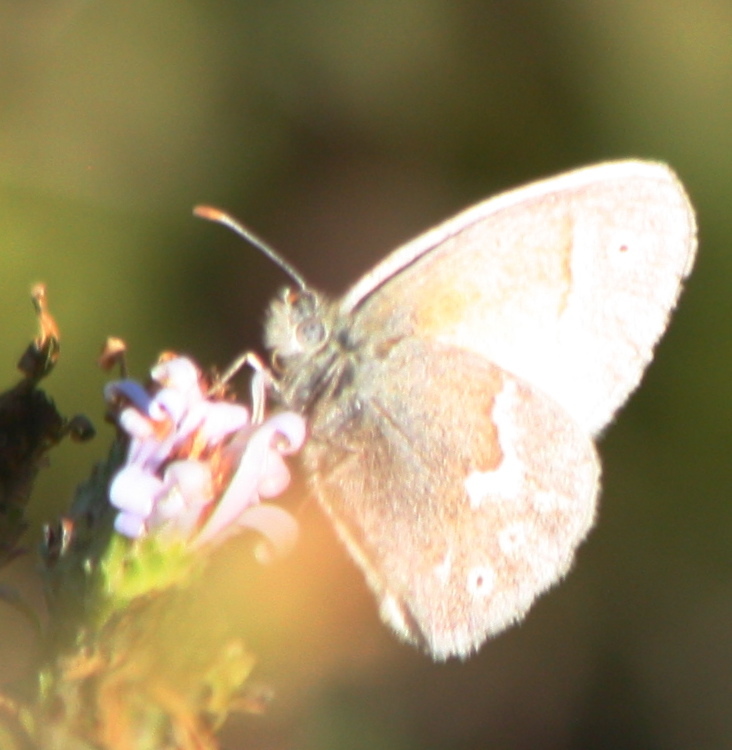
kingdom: Animalia
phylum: Arthropoda
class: Insecta
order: Lepidoptera
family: Nymphalidae
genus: Coenonympha
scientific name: Coenonympha california
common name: Common ringlet
